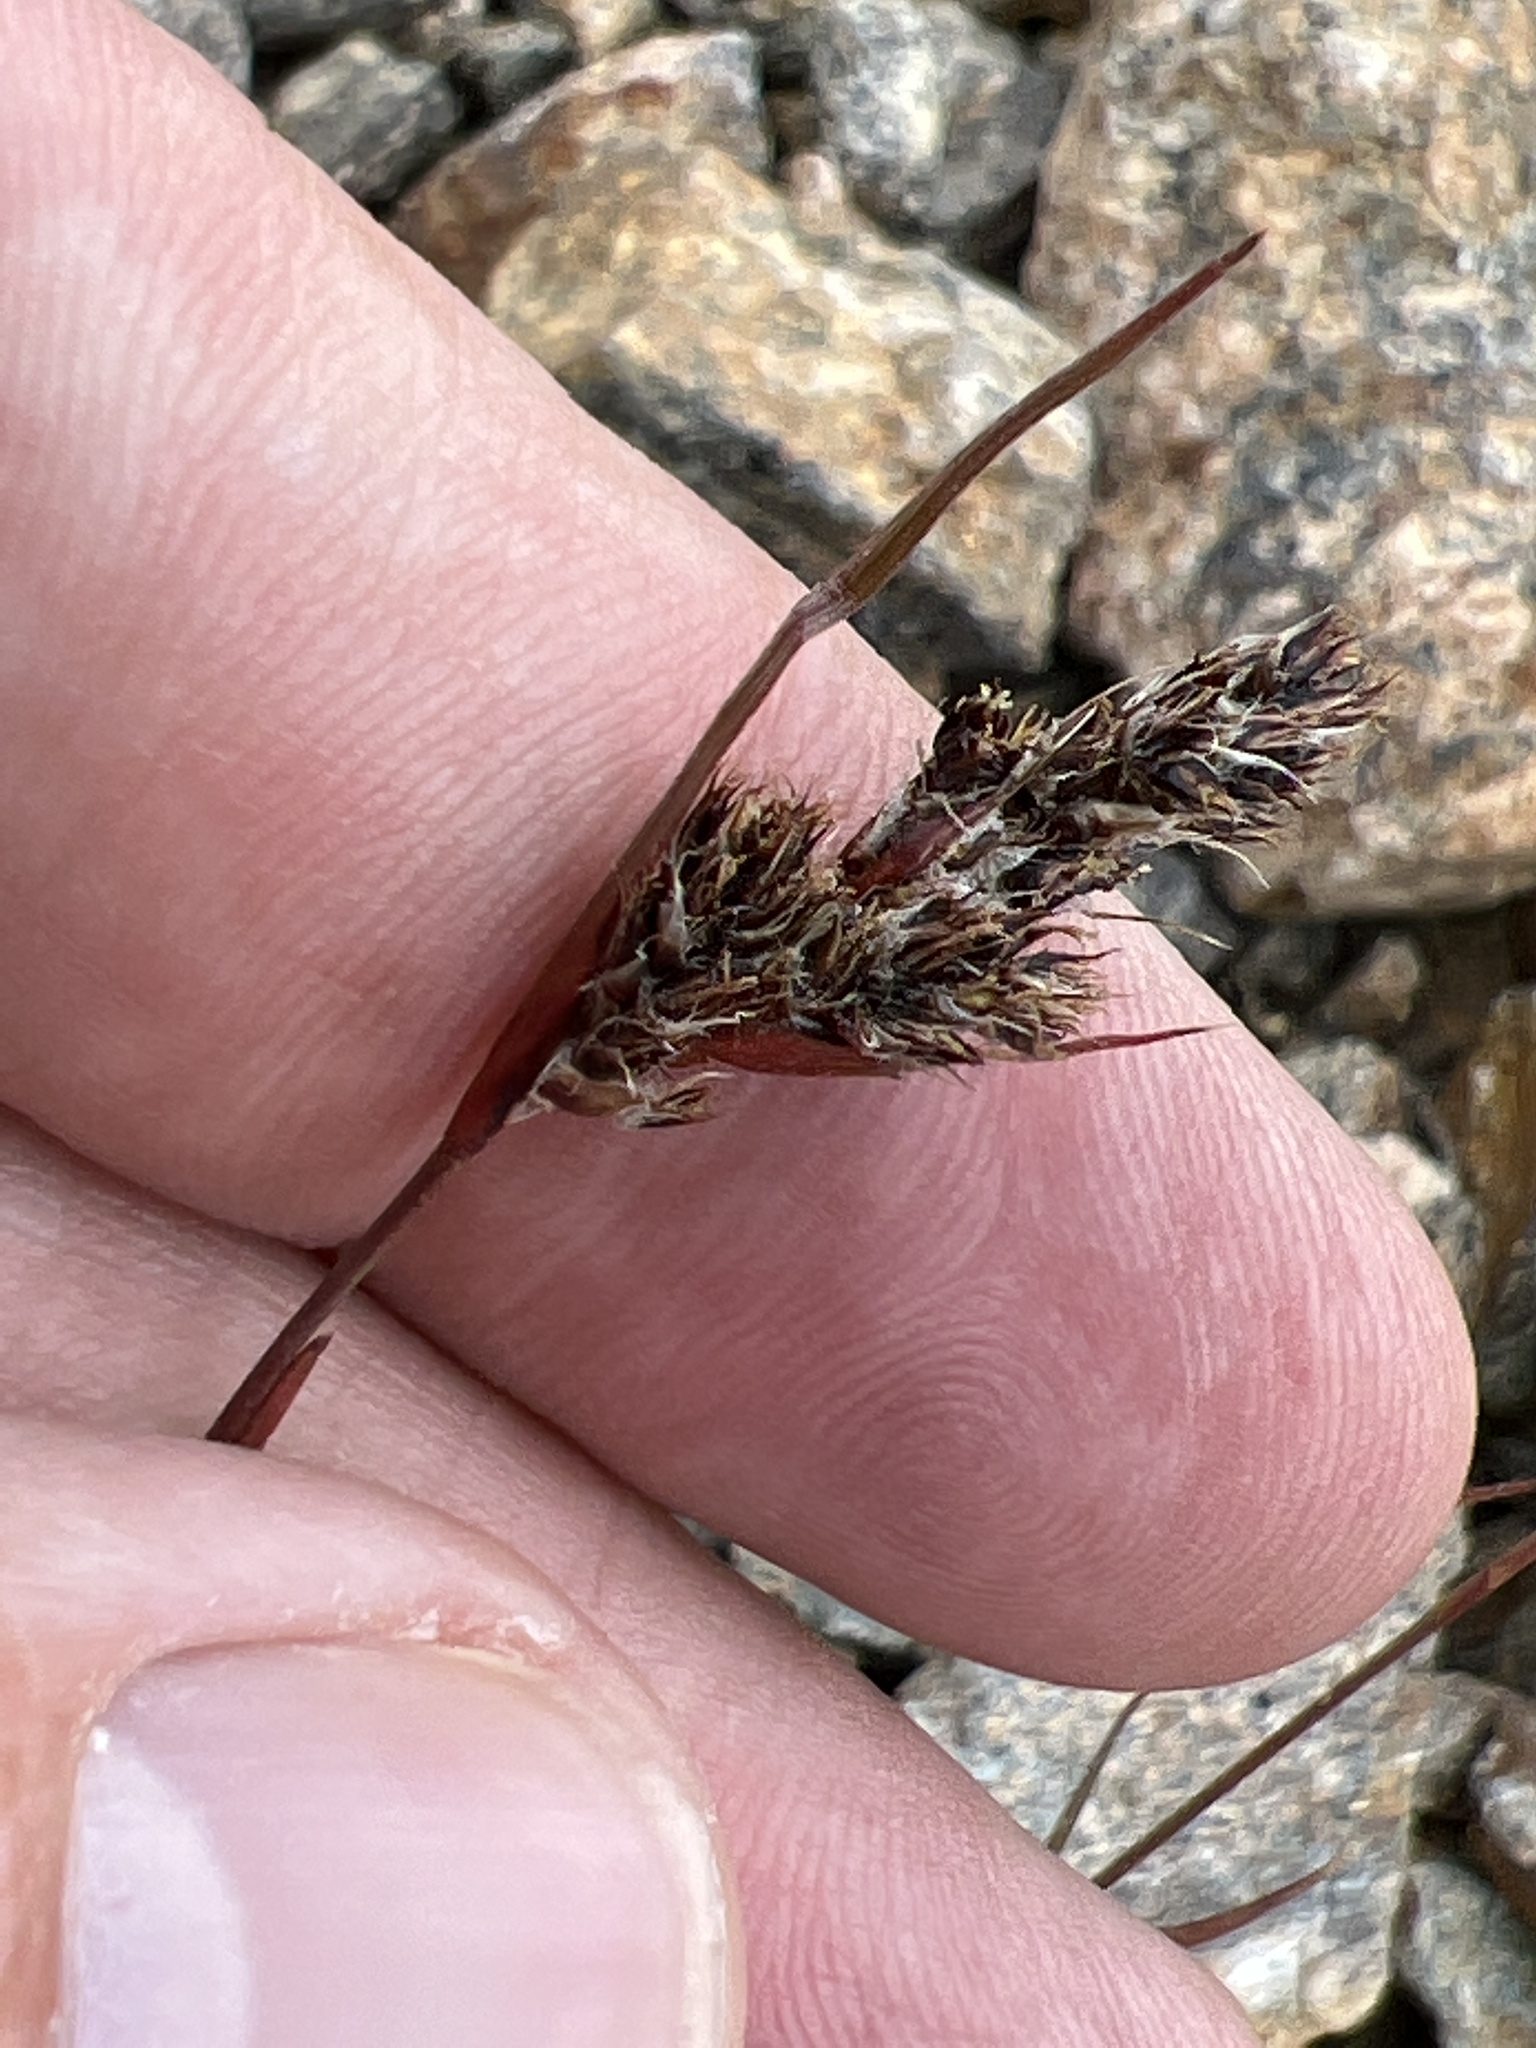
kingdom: Plantae
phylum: Tracheophyta
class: Liliopsida
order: Poales
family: Juncaceae
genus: Luzula
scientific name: Luzula spicata
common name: Spiked wood-rush
